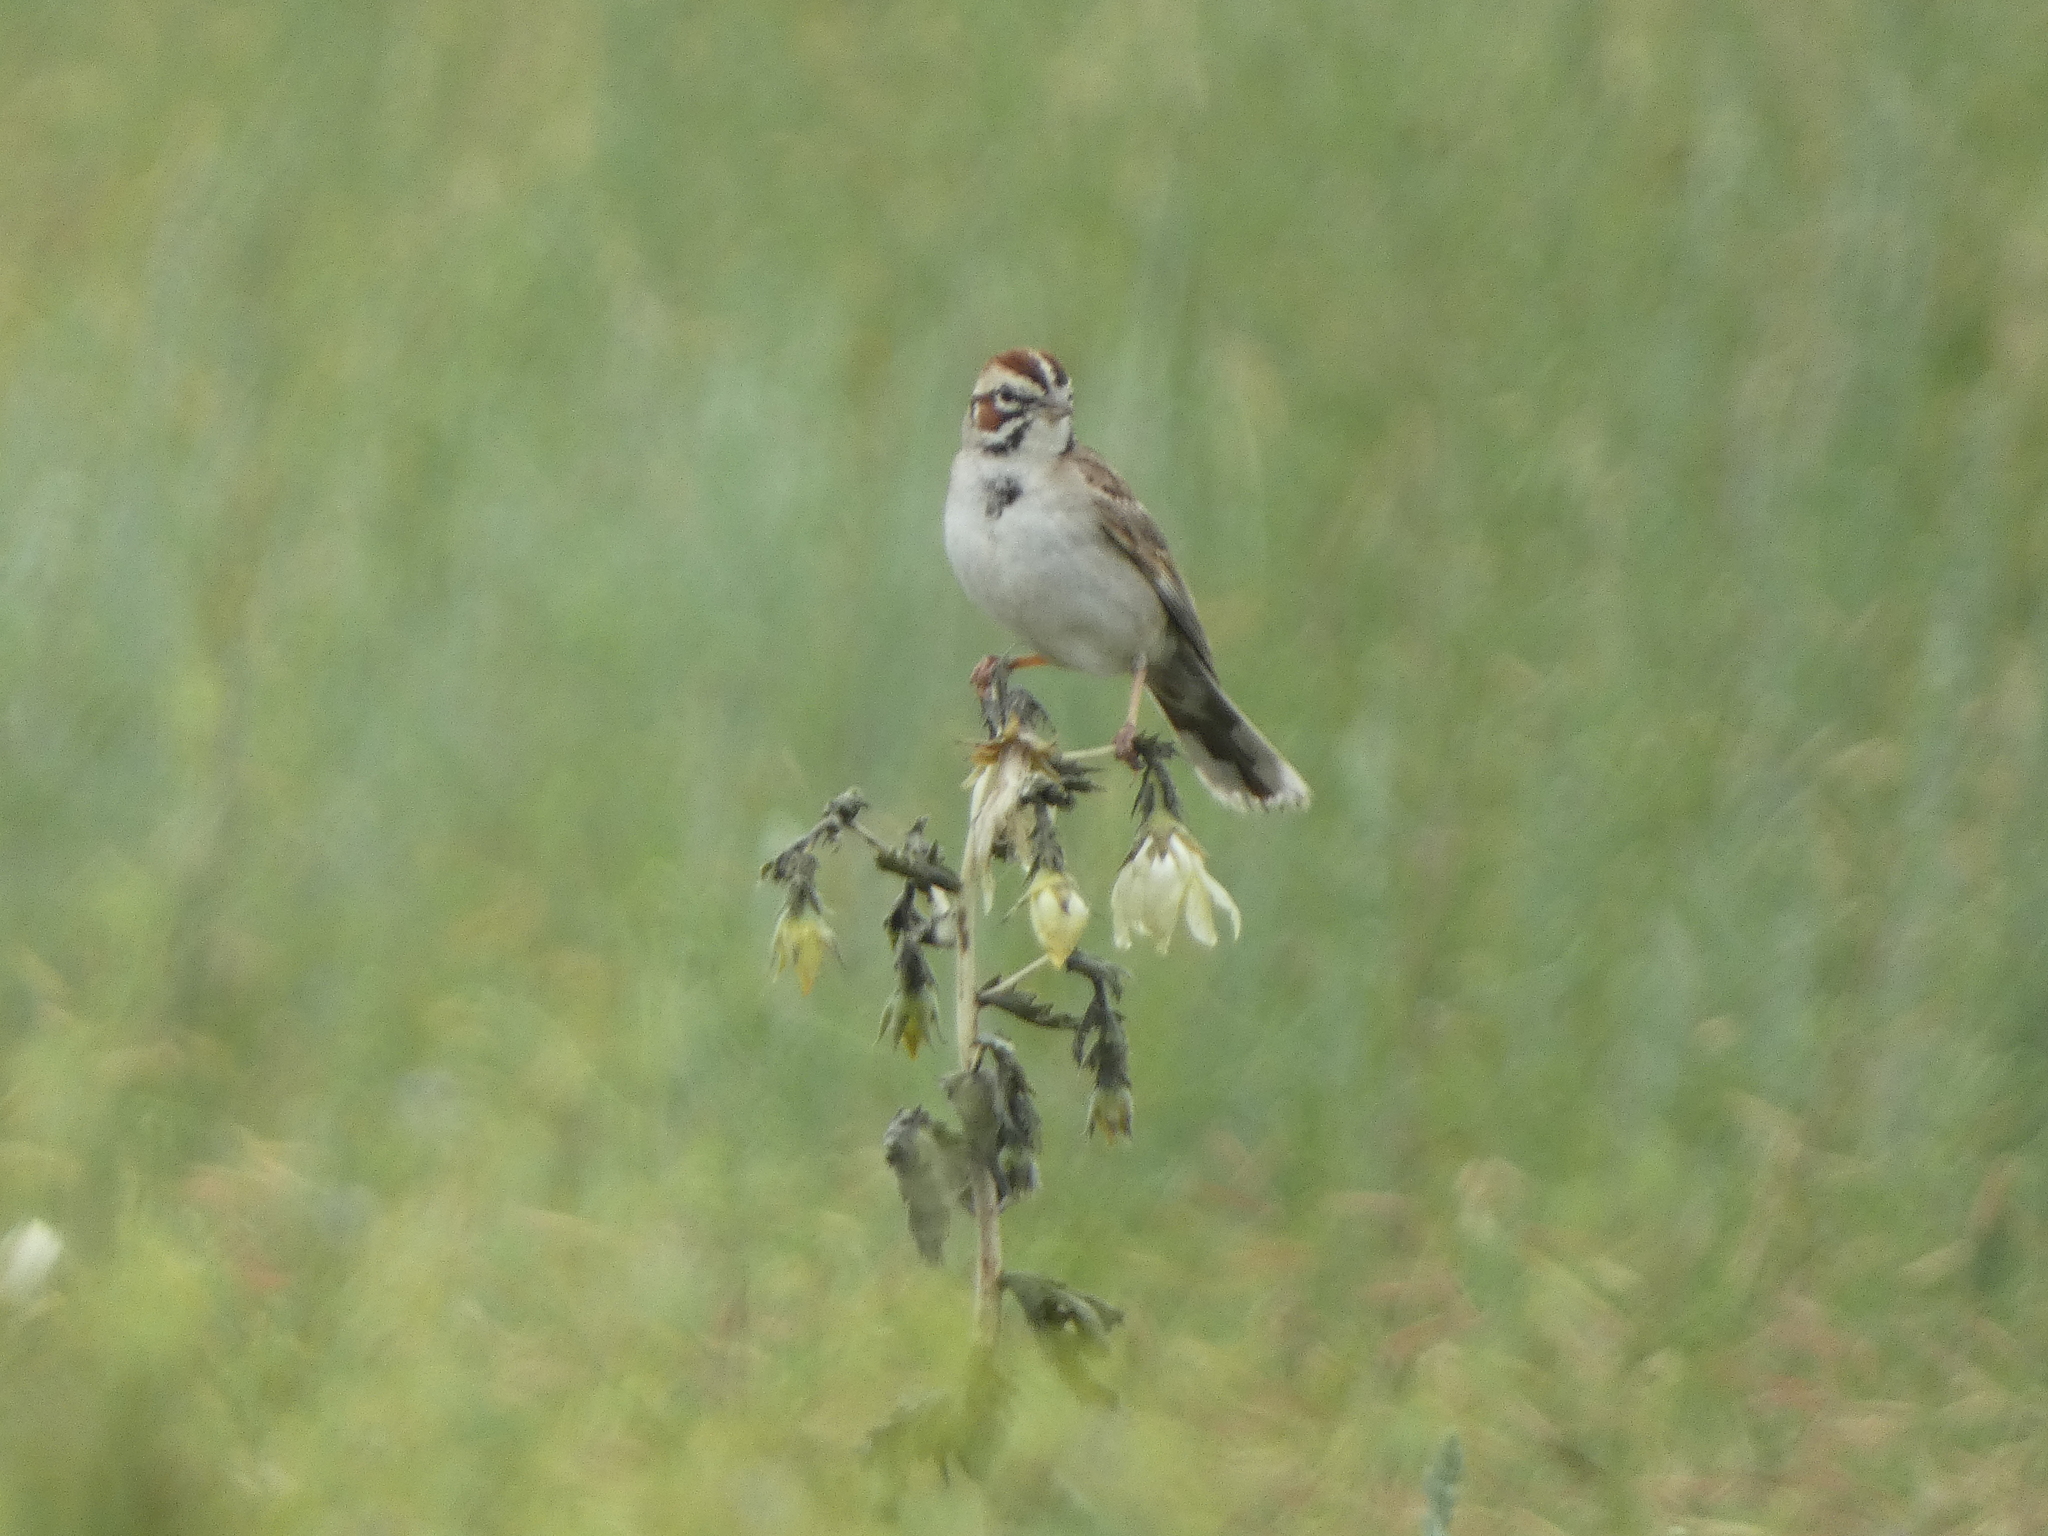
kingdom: Animalia
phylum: Chordata
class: Aves
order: Passeriformes
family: Passerellidae
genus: Chondestes
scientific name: Chondestes grammacus
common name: Lark sparrow
